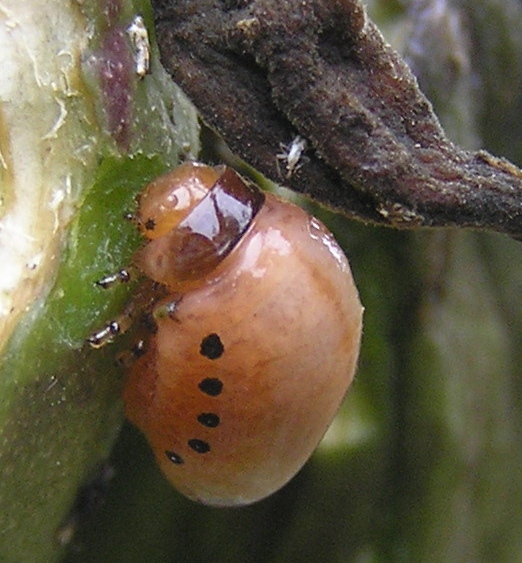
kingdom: Animalia
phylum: Arthropoda
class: Insecta
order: Coleoptera
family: Chrysomelidae
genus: Labidomera
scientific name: Labidomera clivicollis
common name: Swamp milkweed leaf beetle
